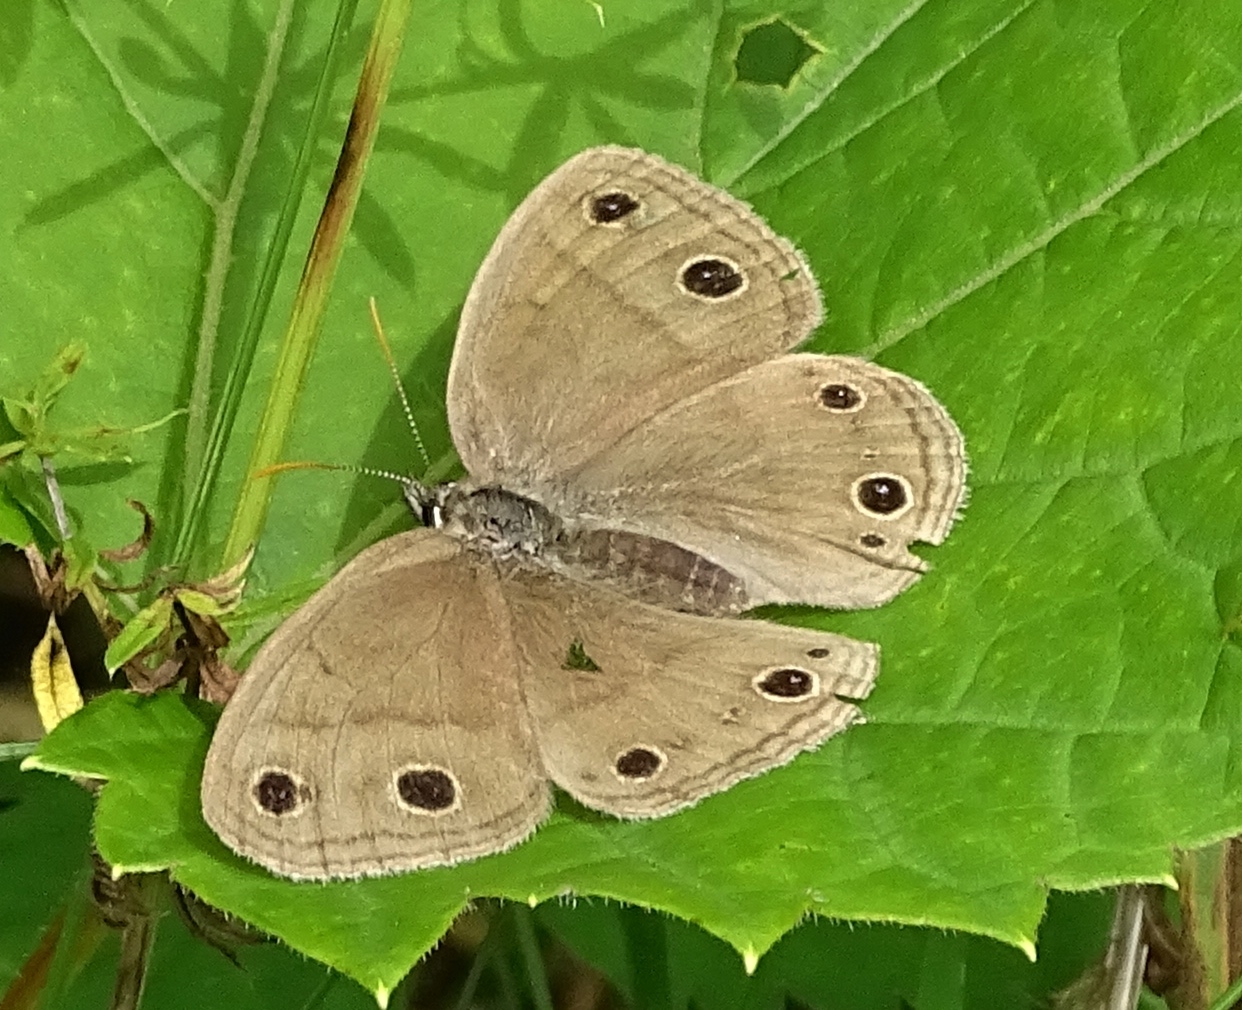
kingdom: Animalia
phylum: Arthropoda
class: Insecta
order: Lepidoptera
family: Nymphalidae
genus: Euptychia
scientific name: Euptychia cymela
